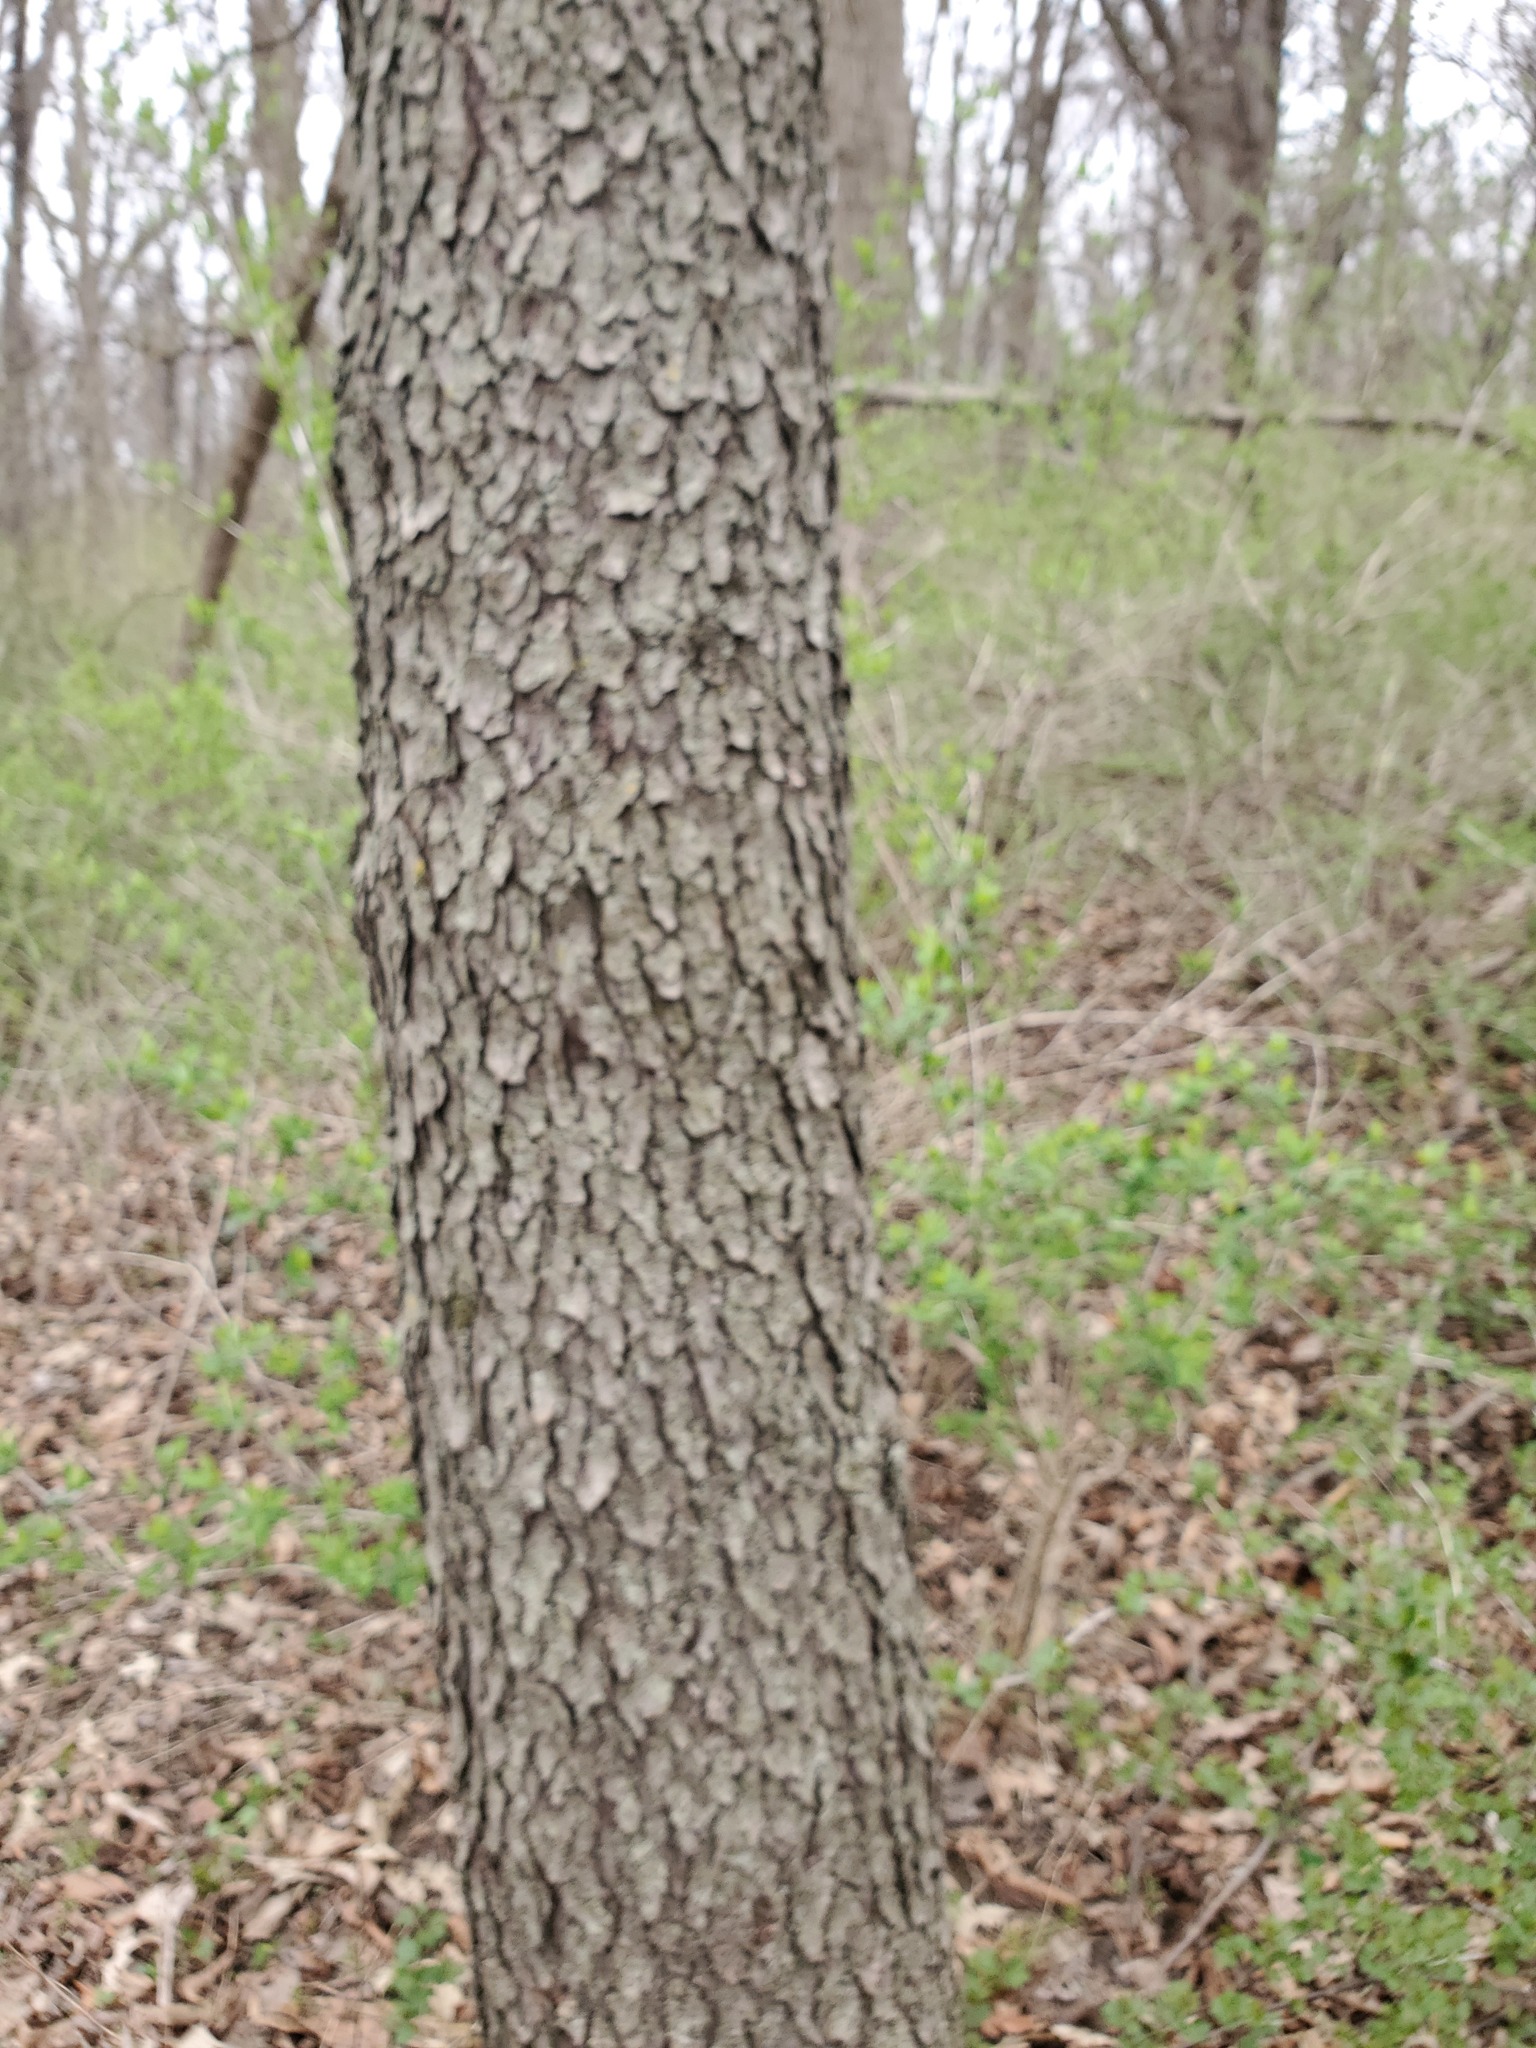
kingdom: Plantae
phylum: Tracheophyta
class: Magnoliopsida
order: Rosales
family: Rosaceae
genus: Prunus
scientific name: Prunus serotina
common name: Black cherry
